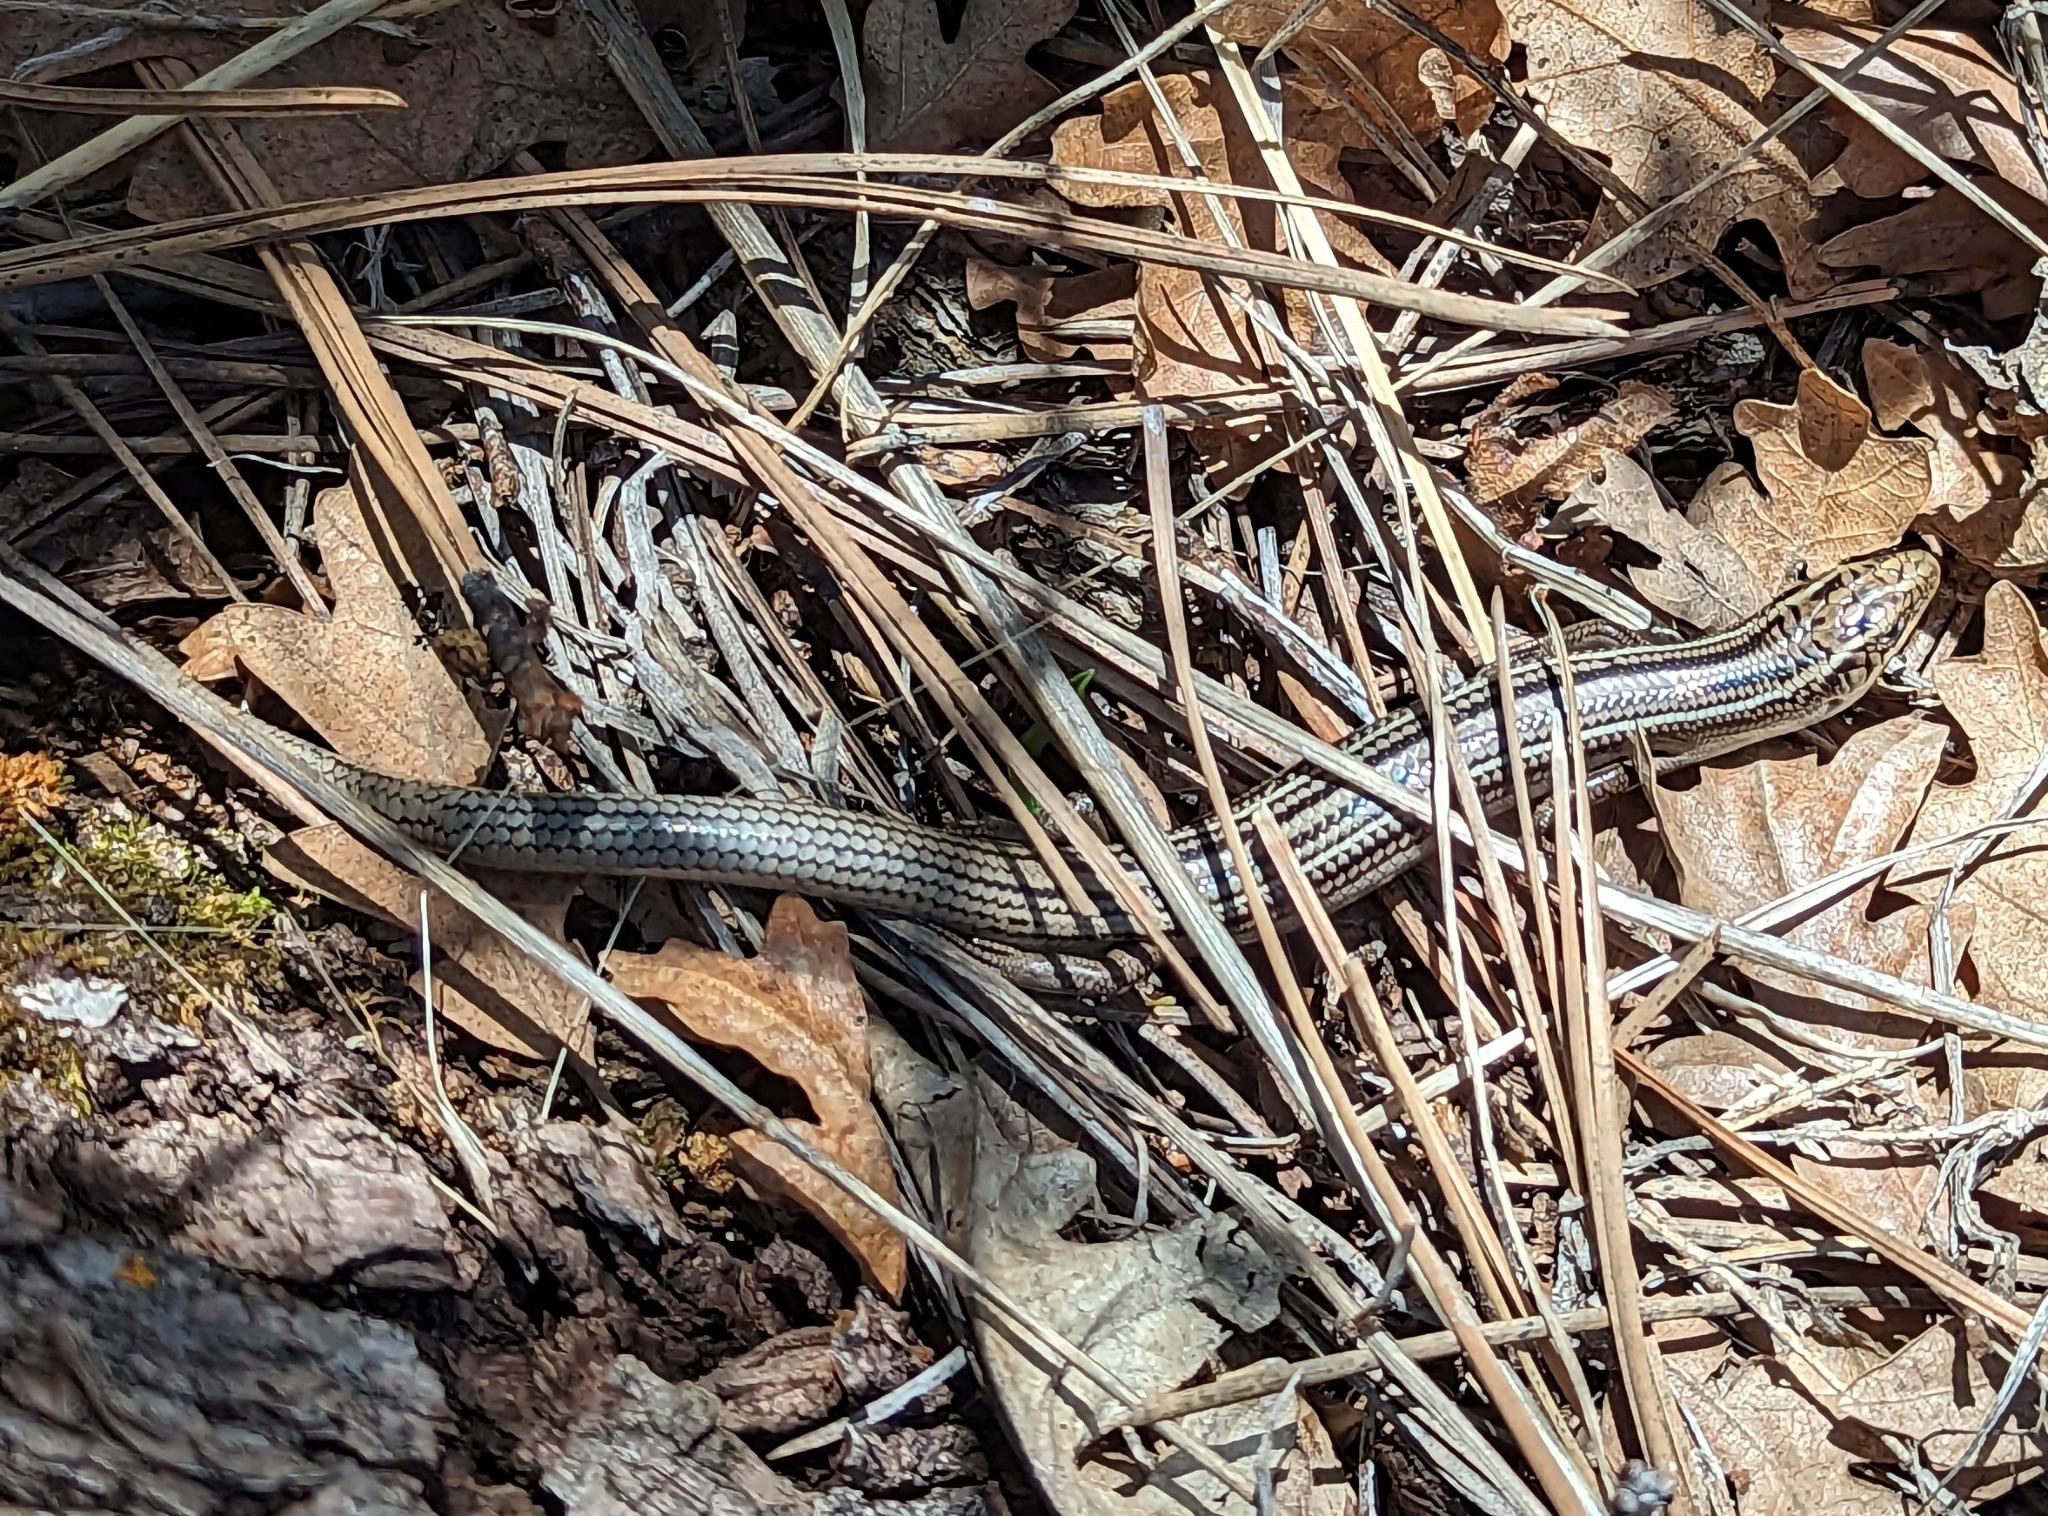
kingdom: Animalia
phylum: Chordata
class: Squamata
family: Scincidae
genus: Plestiodon
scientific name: Plestiodon multivirgatus
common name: Many-lined skink
